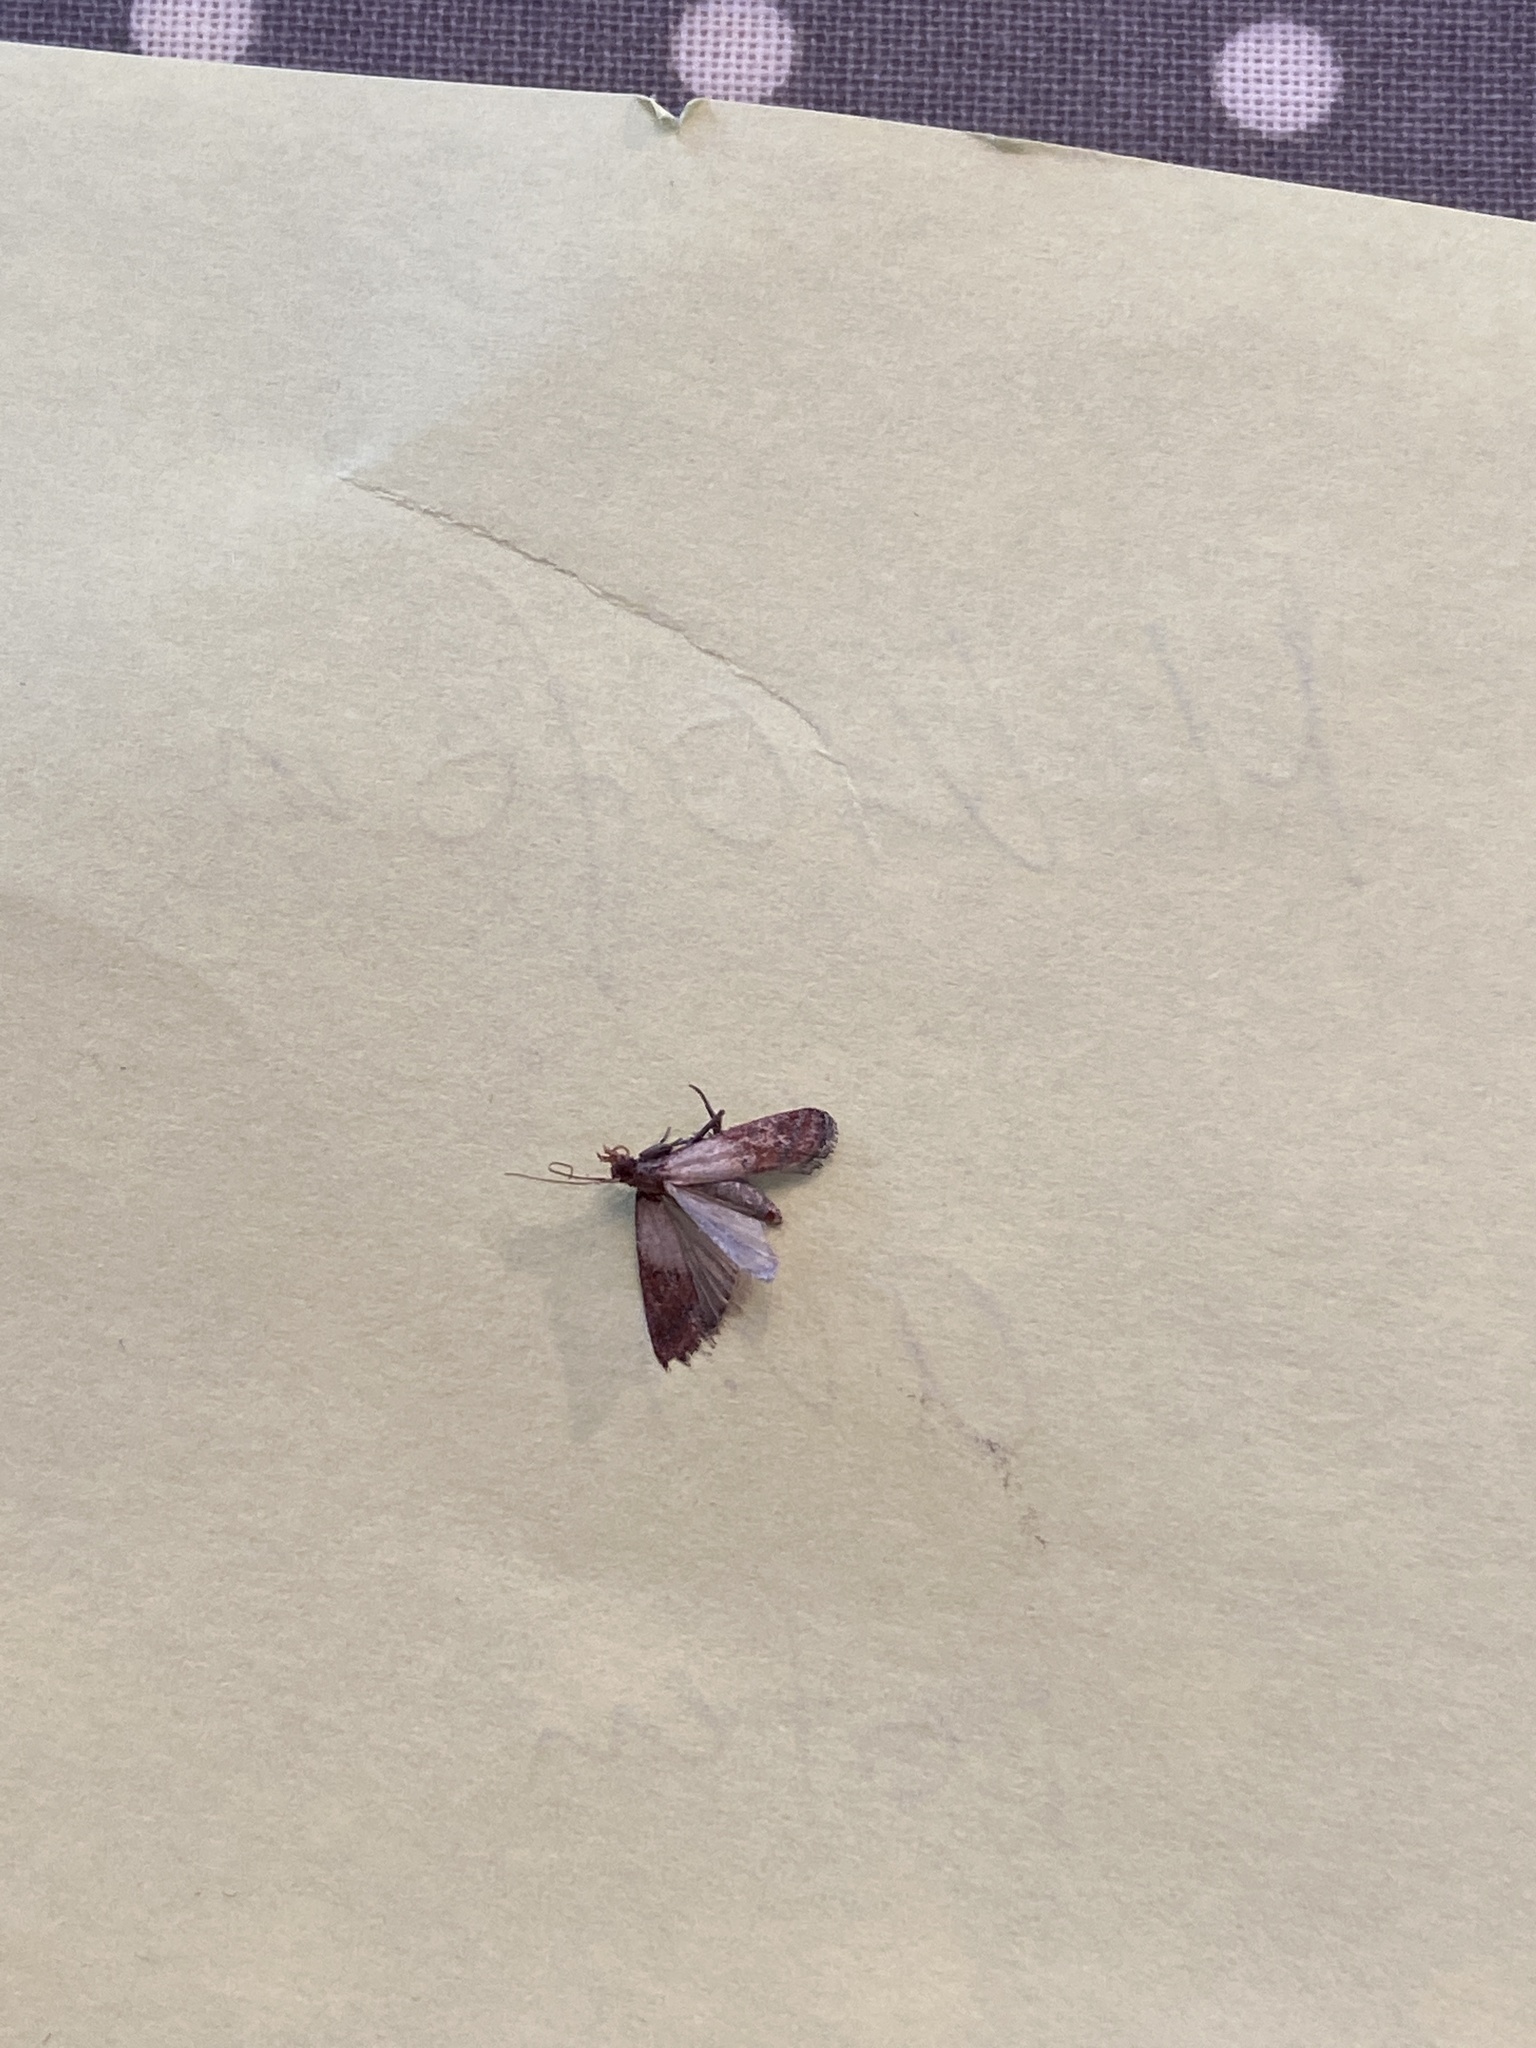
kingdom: Animalia
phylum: Arthropoda
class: Insecta
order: Lepidoptera
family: Pyralidae
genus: Plodia
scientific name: Plodia interpunctella
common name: Indian meal moth
